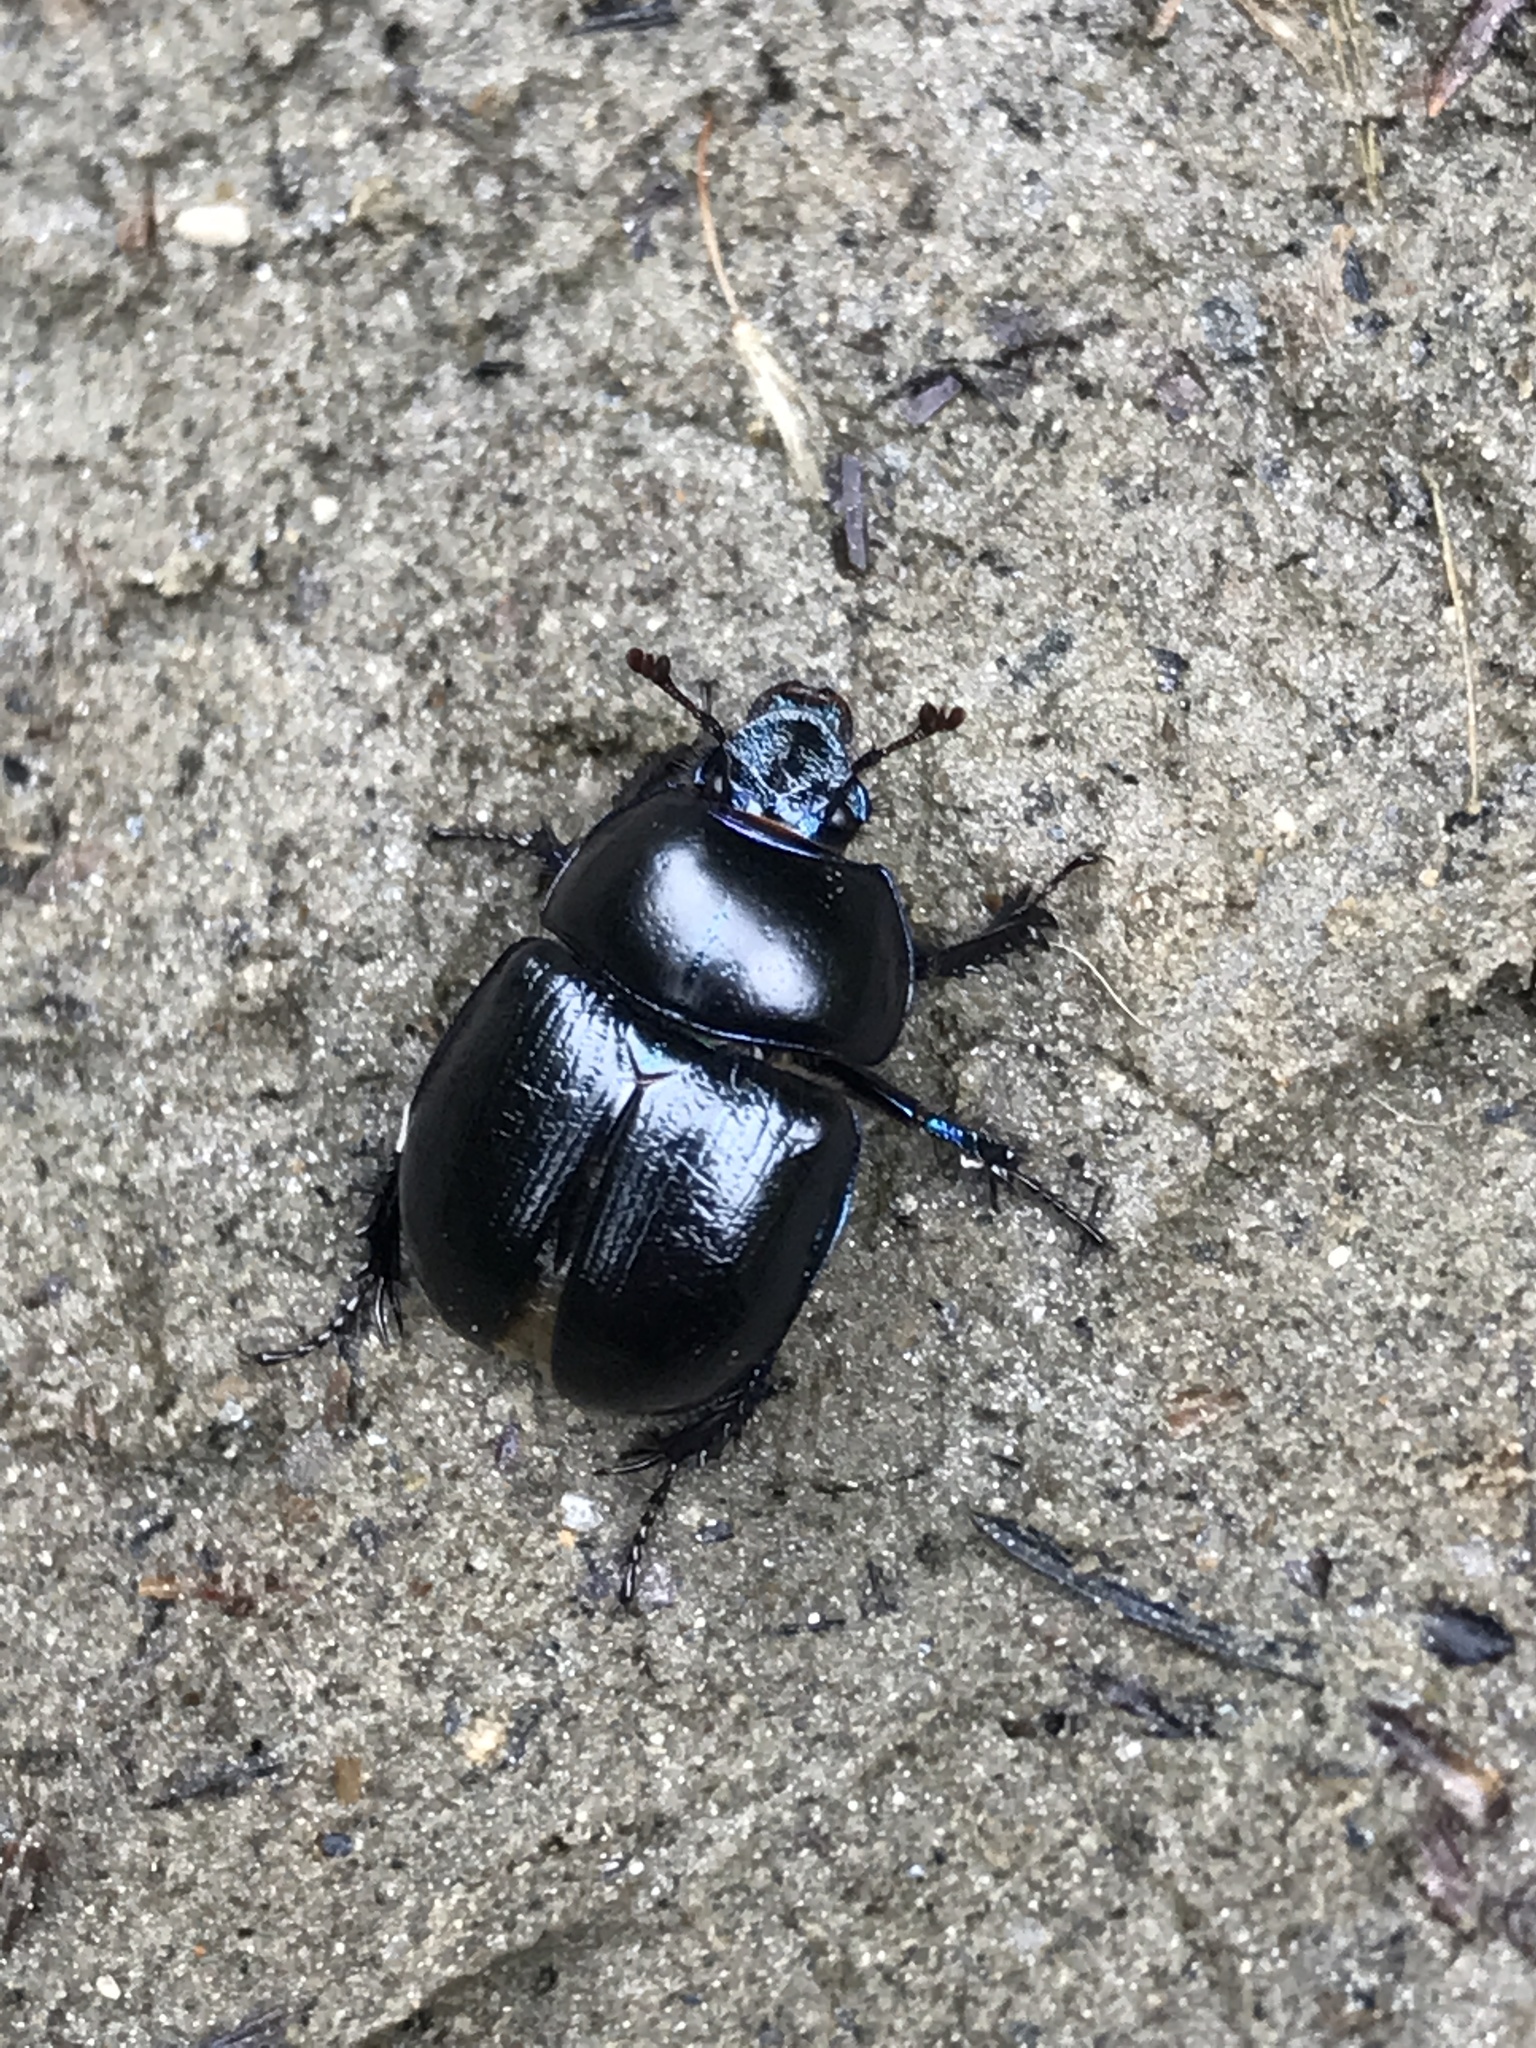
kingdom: Animalia
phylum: Arthropoda
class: Insecta
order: Coleoptera
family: Geotrupidae
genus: Anoplotrupes
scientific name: Anoplotrupes stercorosus
